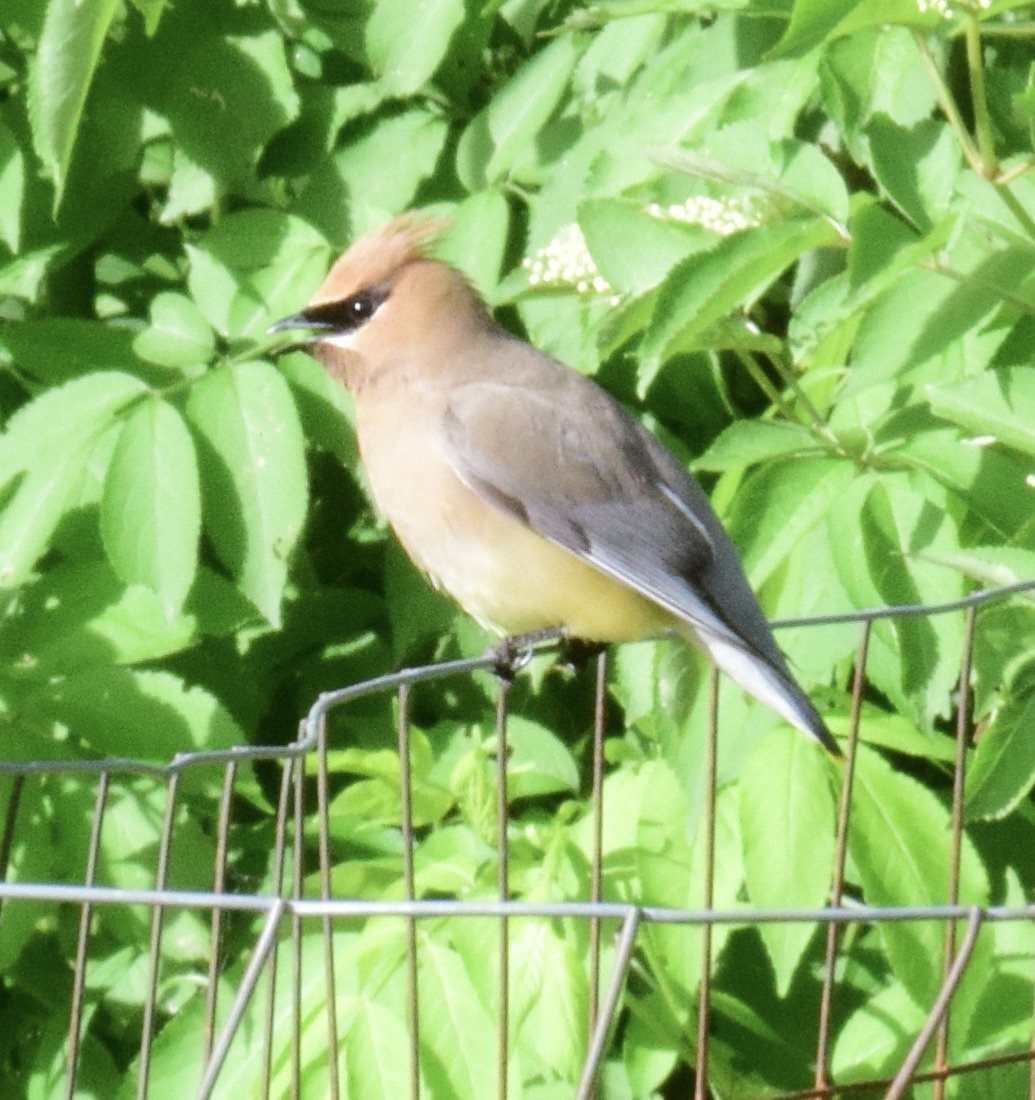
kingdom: Animalia
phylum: Chordata
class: Aves
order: Passeriformes
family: Bombycillidae
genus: Bombycilla
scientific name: Bombycilla cedrorum
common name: Cedar waxwing
